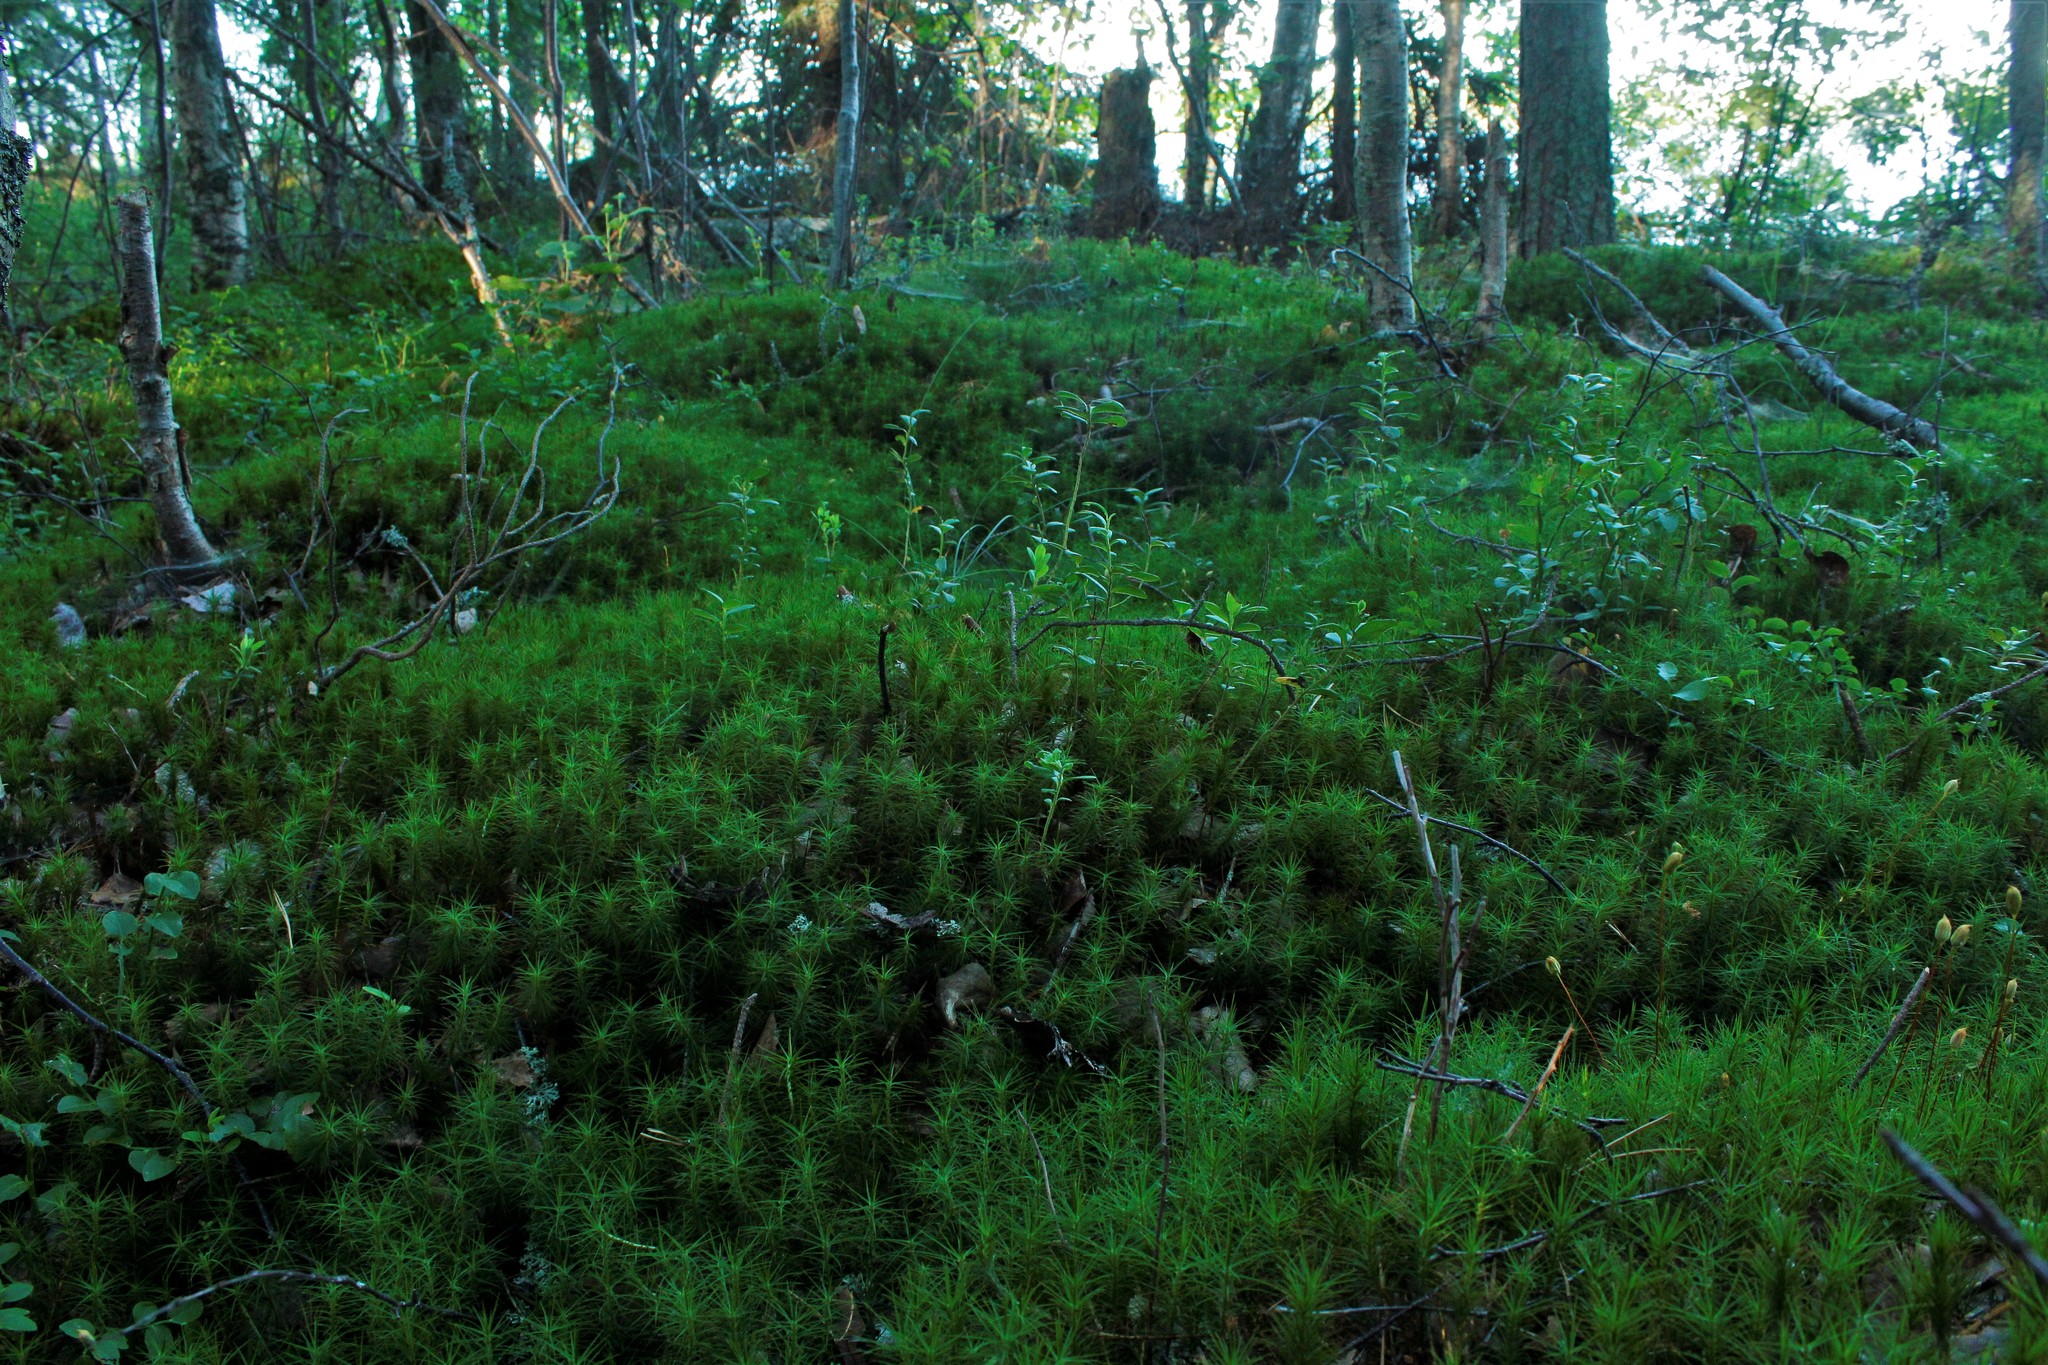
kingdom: Plantae
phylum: Bryophyta
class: Polytrichopsida
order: Polytrichales
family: Polytrichaceae
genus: Polytrichum
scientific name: Polytrichum commune
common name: Common haircap
